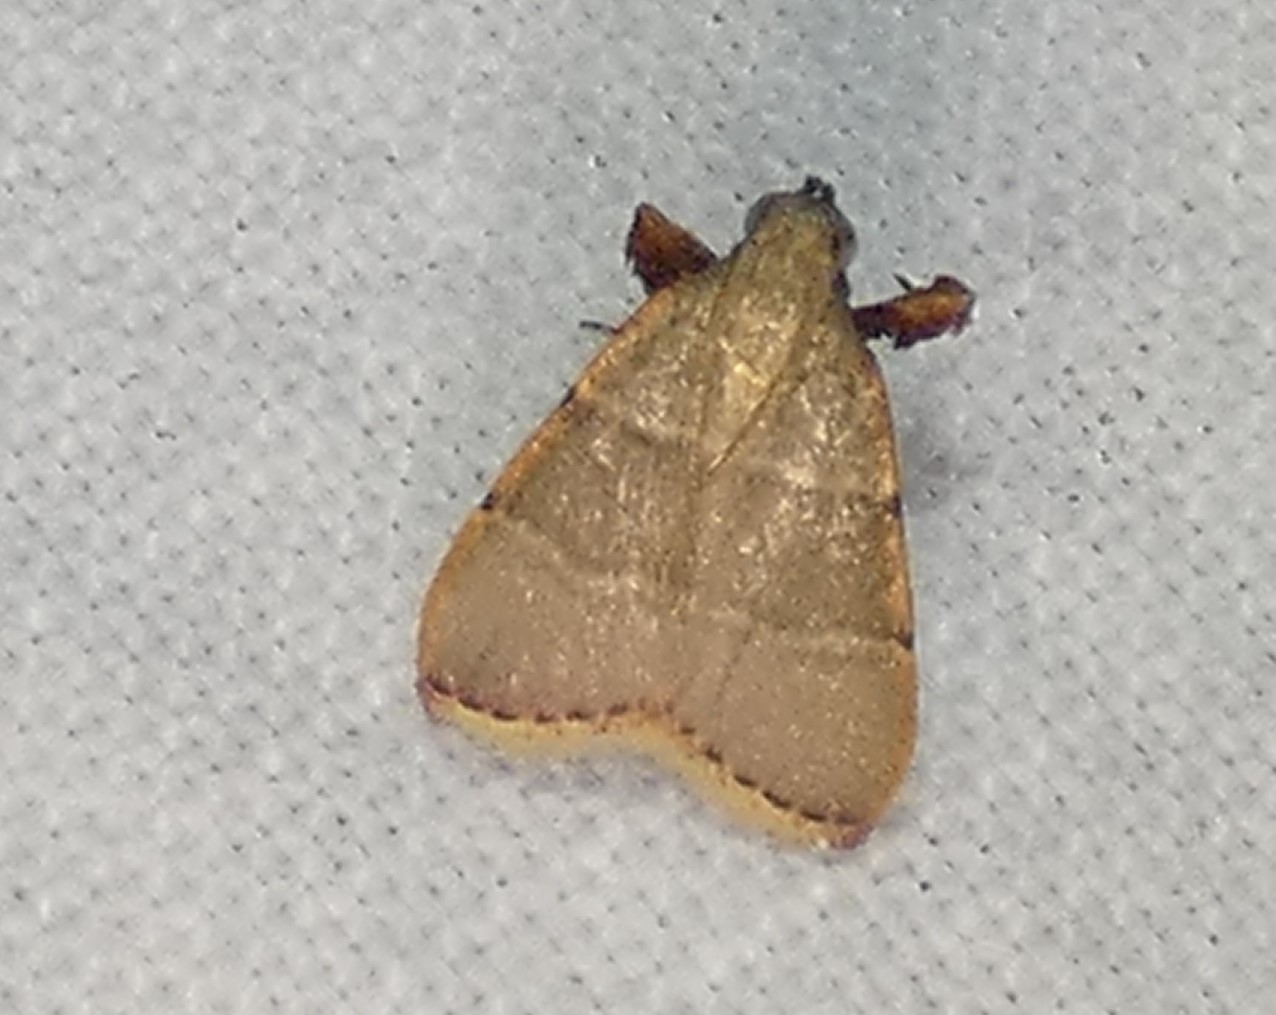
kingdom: Animalia
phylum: Arthropoda
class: Insecta
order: Lepidoptera
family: Pyralidae
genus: Parachma
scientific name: Parachma ochracealis
